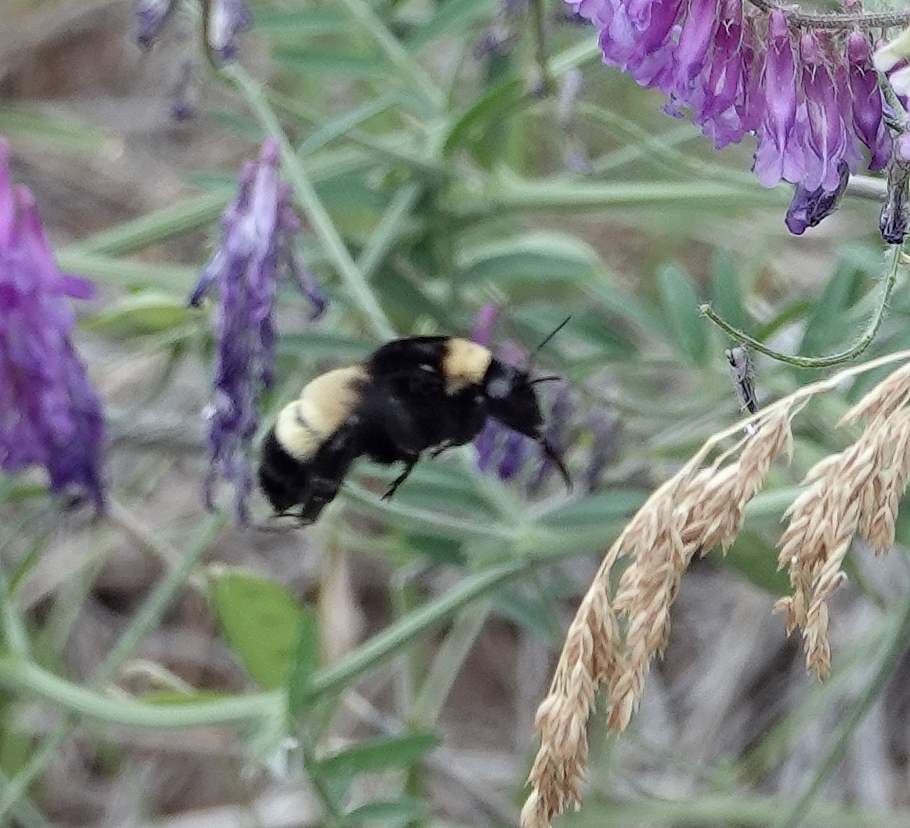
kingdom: Animalia
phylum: Arthropoda
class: Insecta
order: Hymenoptera
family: Apidae
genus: Bombus
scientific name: Bombus pensylvanicus
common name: Bumble bee
